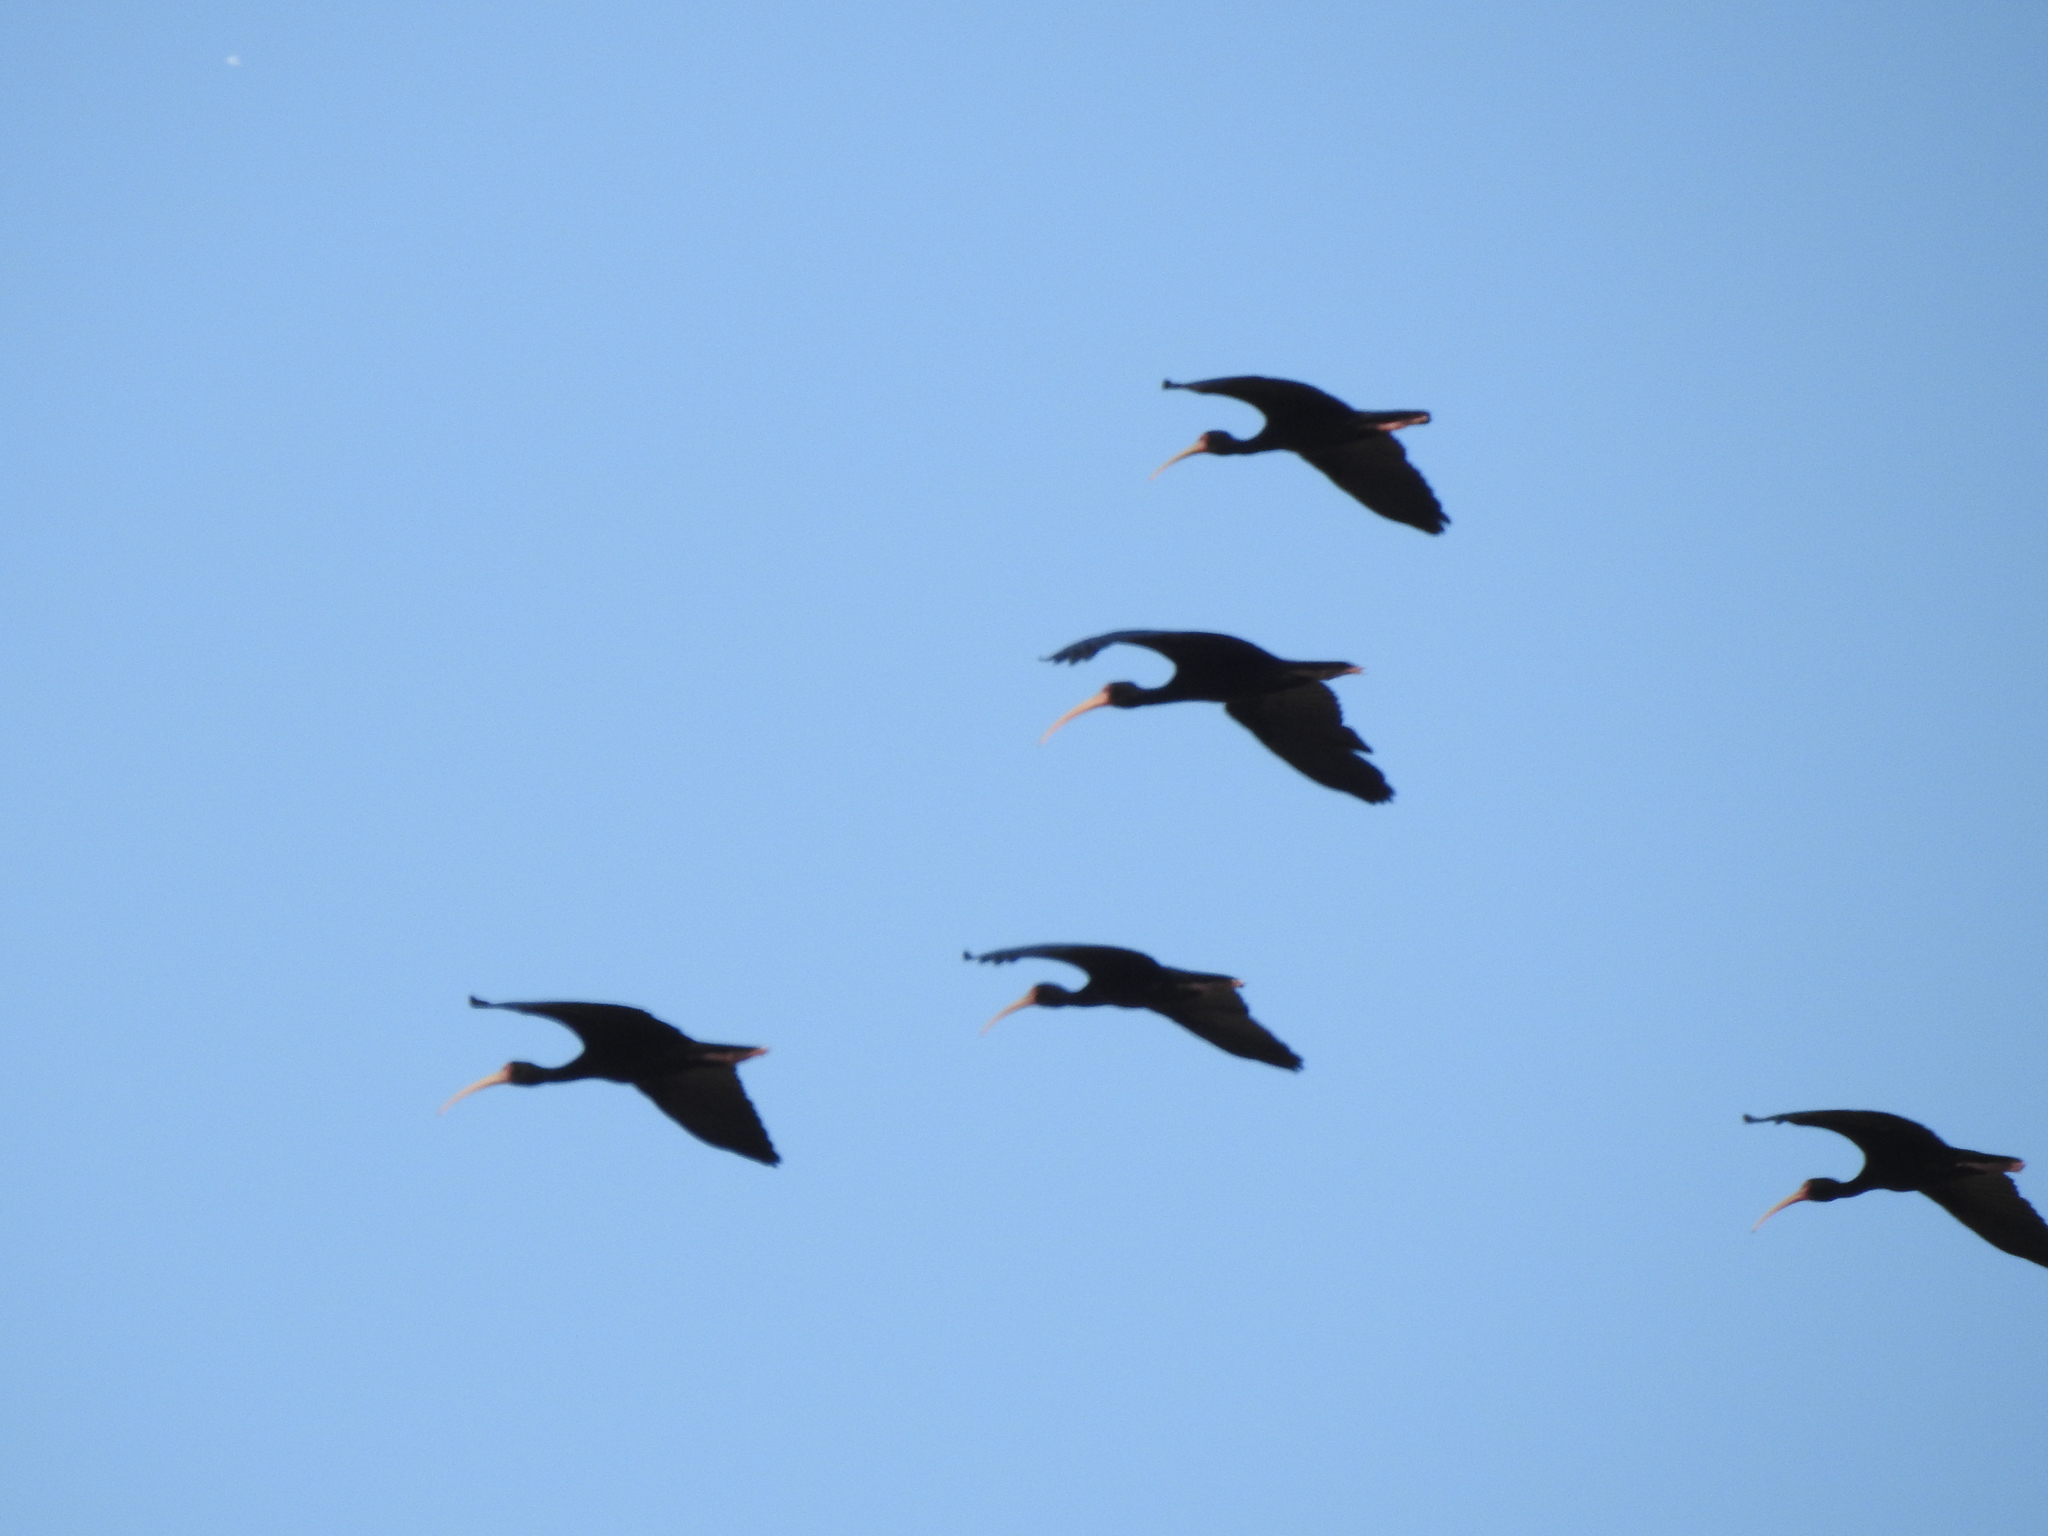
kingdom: Animalia
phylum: Chordata
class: Aves
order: Pelecaniformes
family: Threskiornithidae
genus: Phimosus
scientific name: Phimosus infuscatus
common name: Bare-faced ibis
